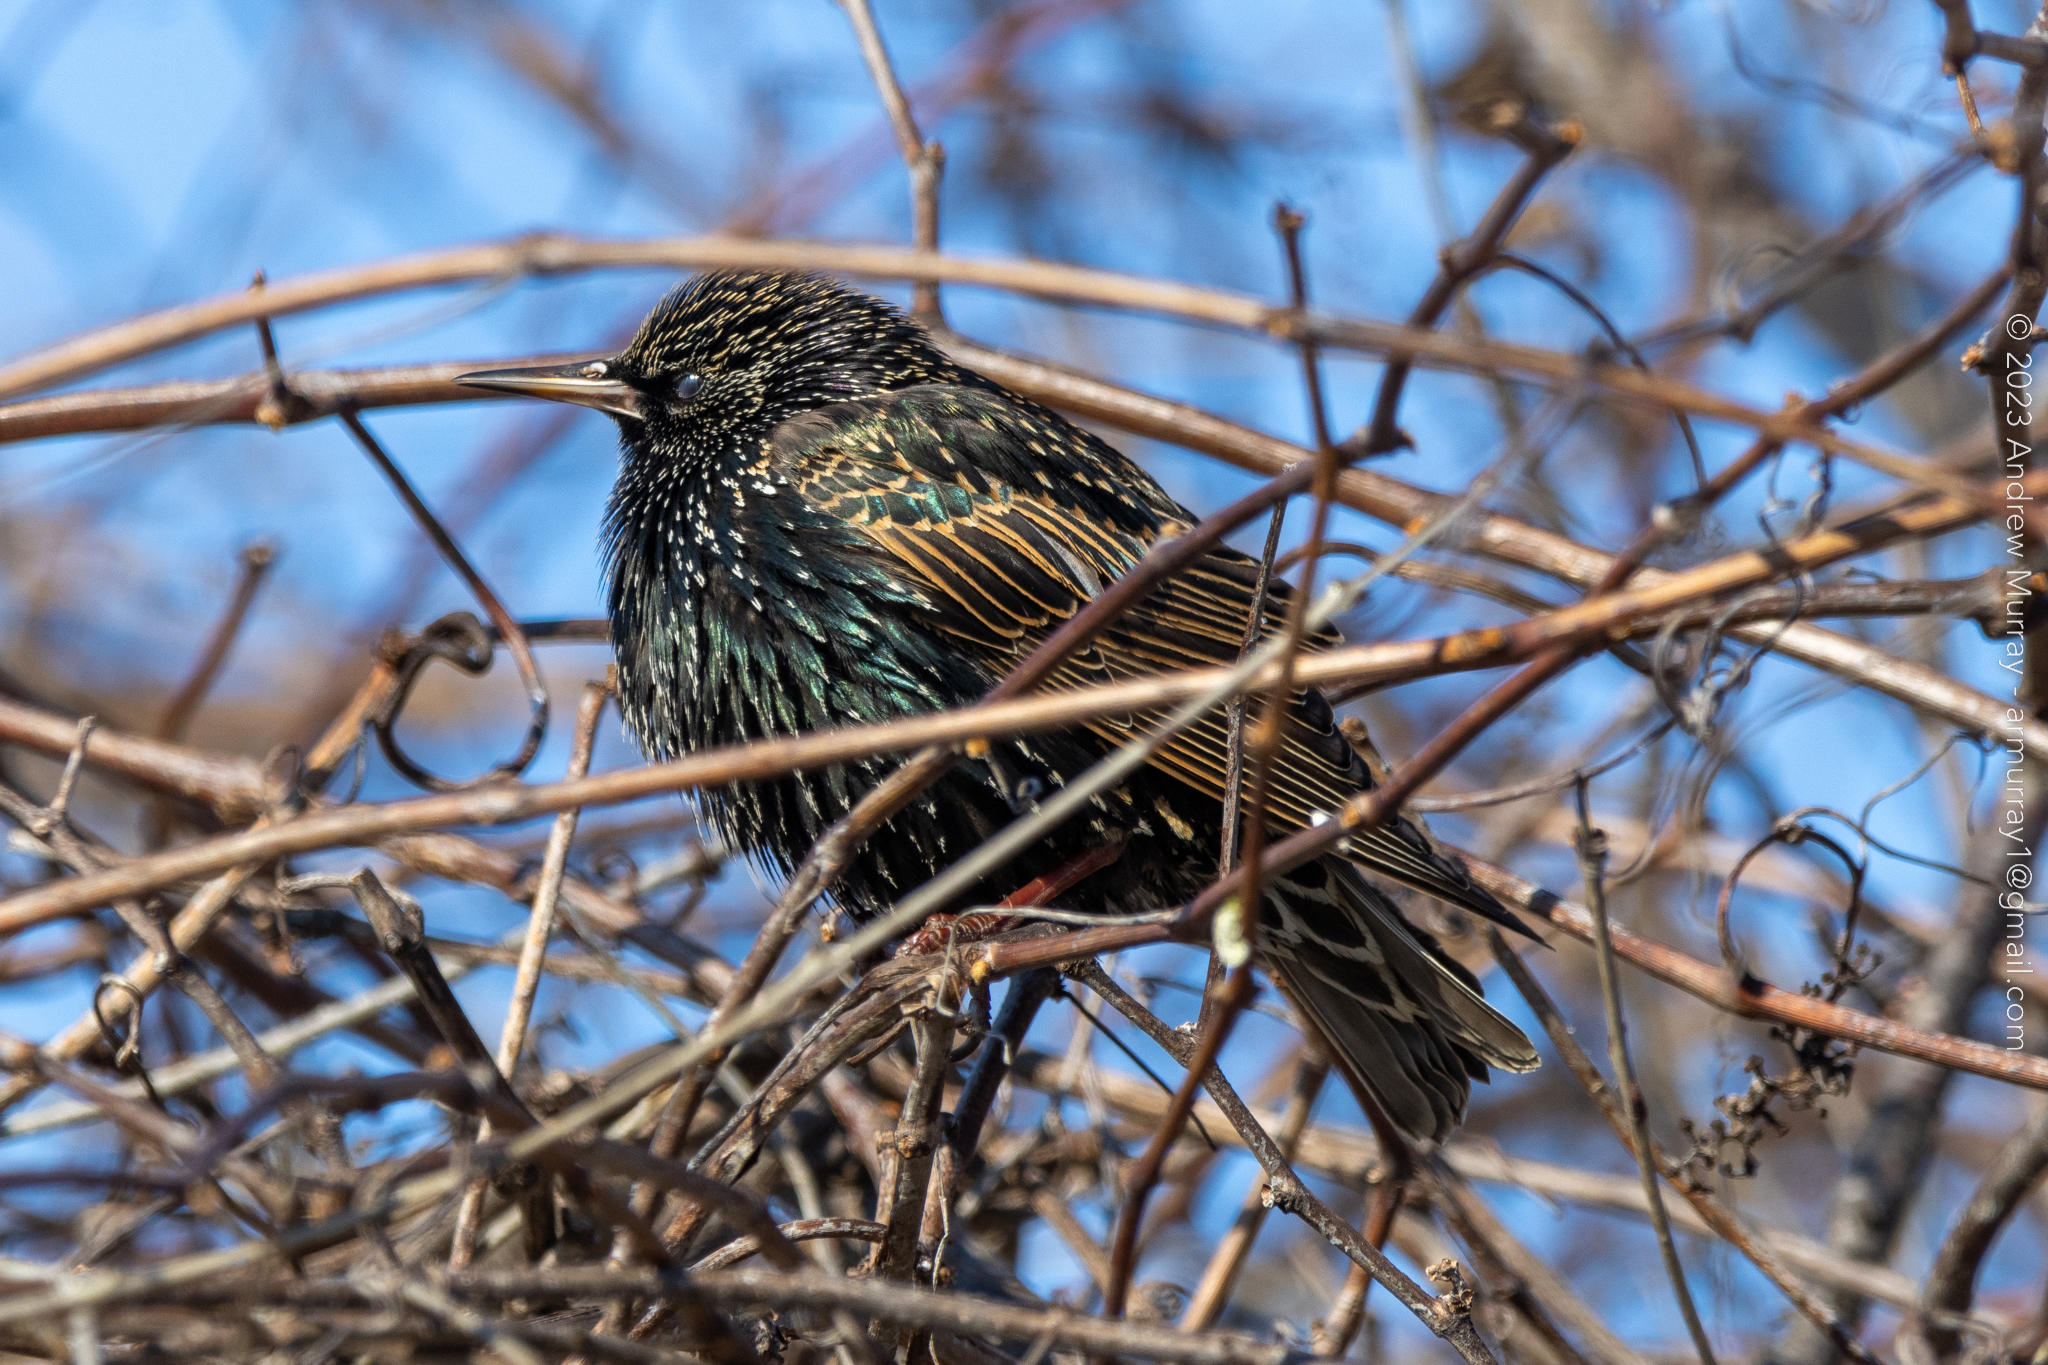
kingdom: Animalia
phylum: Chordata
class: Aves
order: Passeriformes
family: Sturnidae
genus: Sturnus
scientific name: Sturnus vulgaris
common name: Common starling
